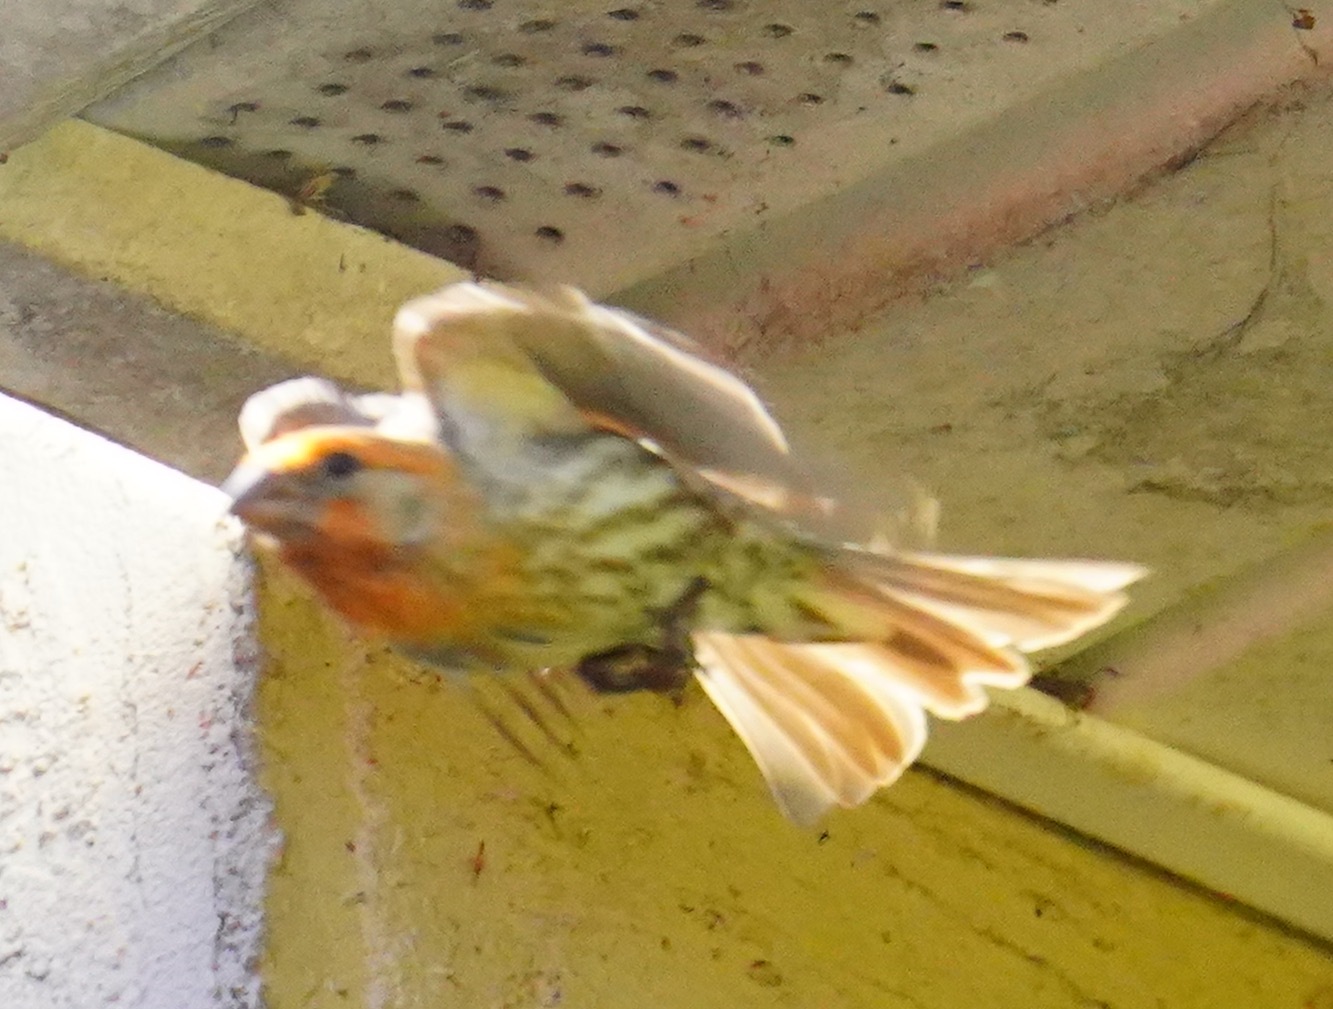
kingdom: Animalia
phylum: Chordata
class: Aves
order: Passeriformes
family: Fringillidae
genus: Haemorhous
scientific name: Haemorhous mexicanus
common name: House finch
